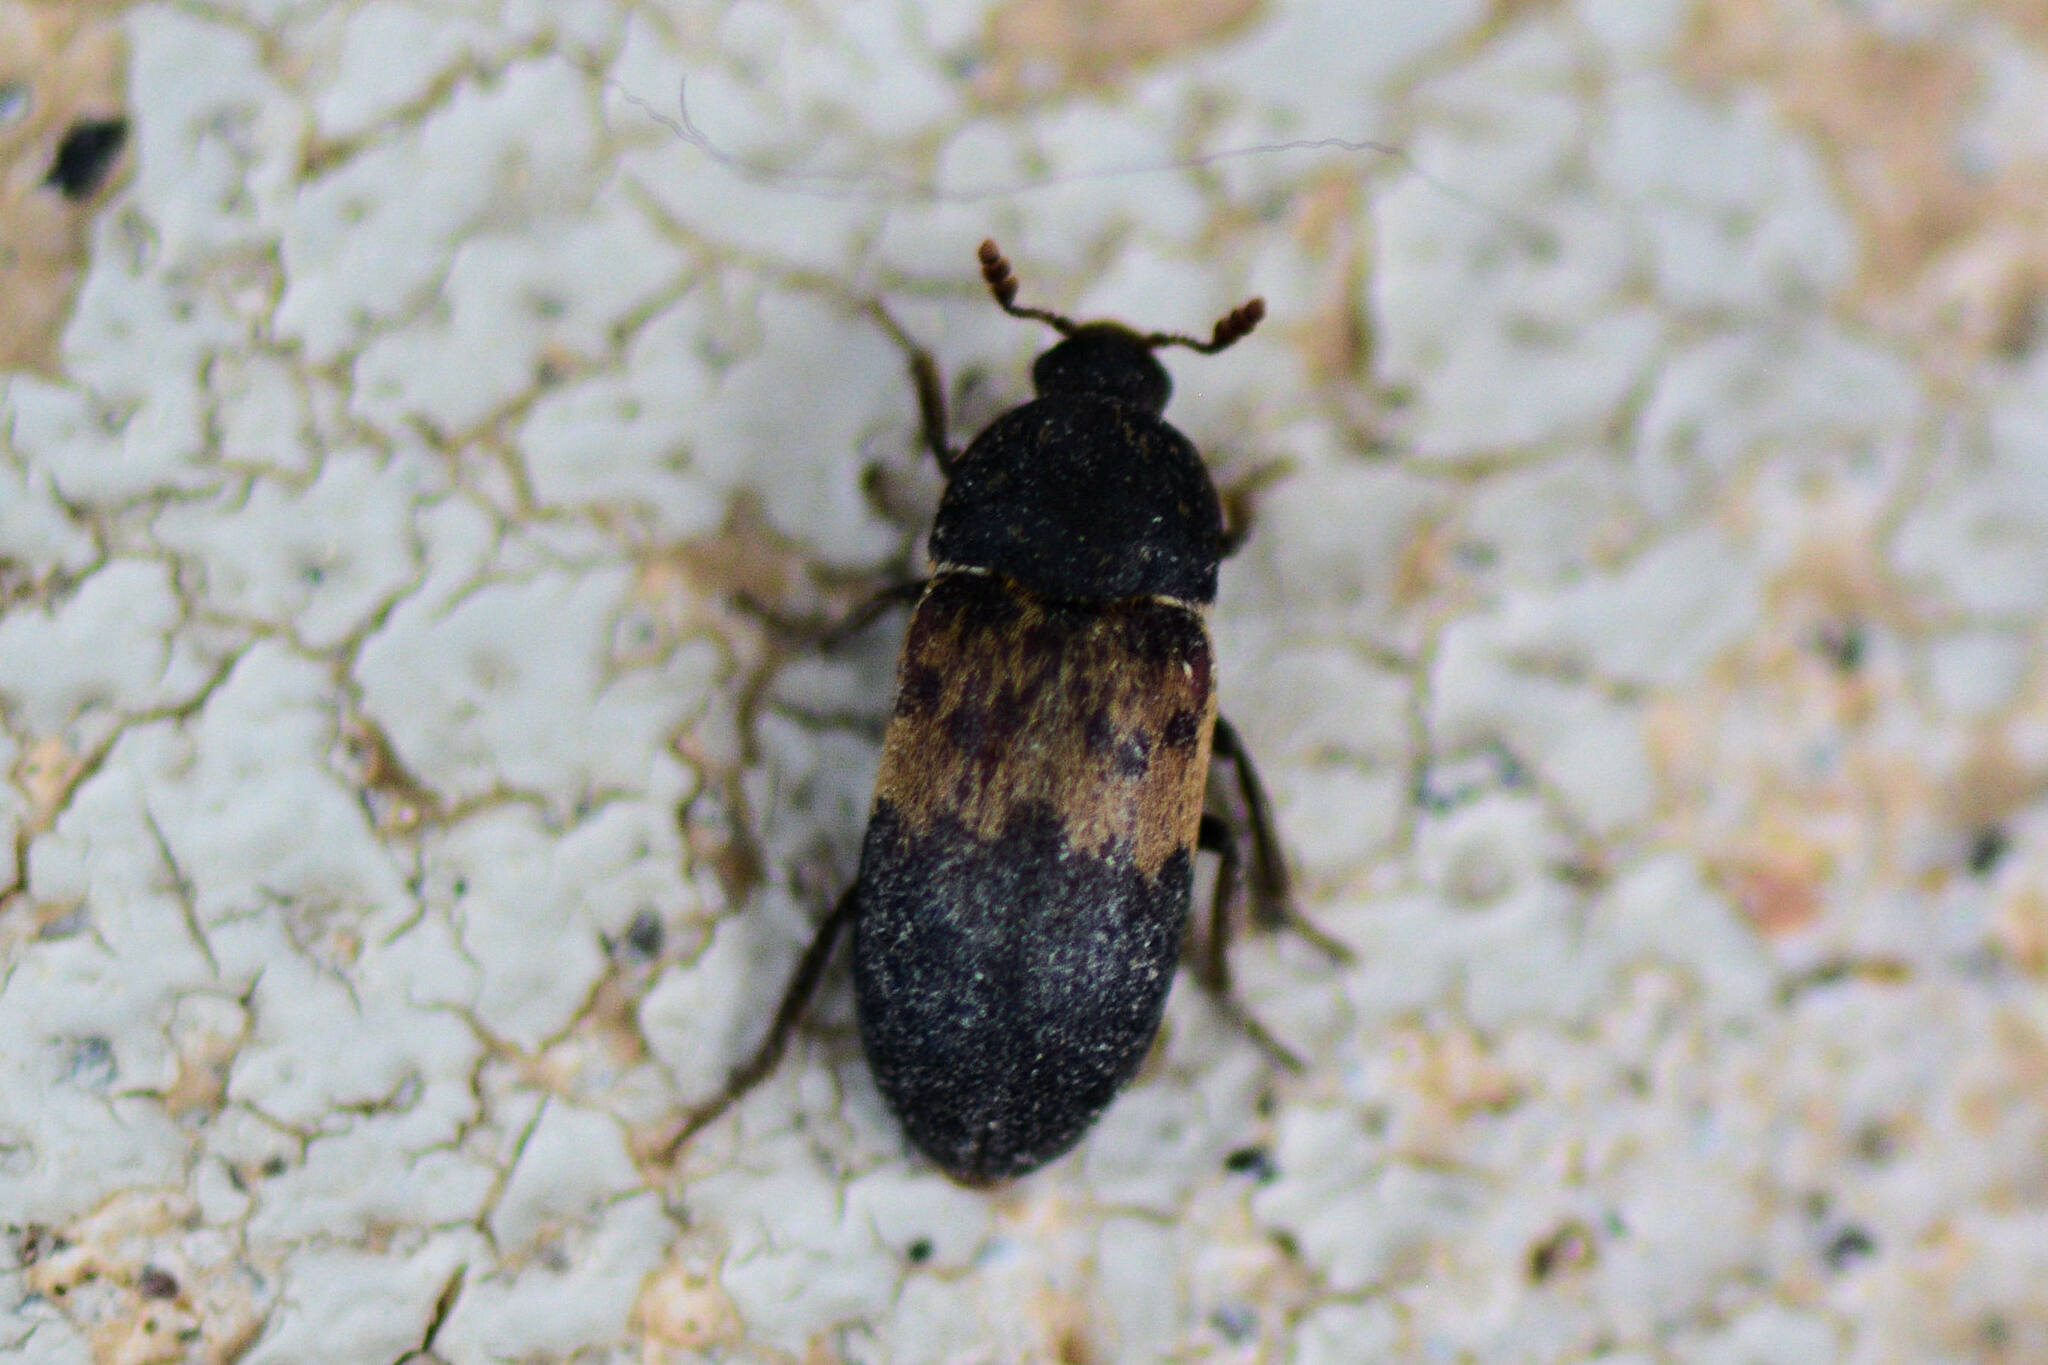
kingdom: Animalia
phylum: Arthropoda
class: Insecta
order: Coleoptera
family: Dermestidae
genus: Dermestes
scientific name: Dermestes lardarius
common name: Larder beetle
